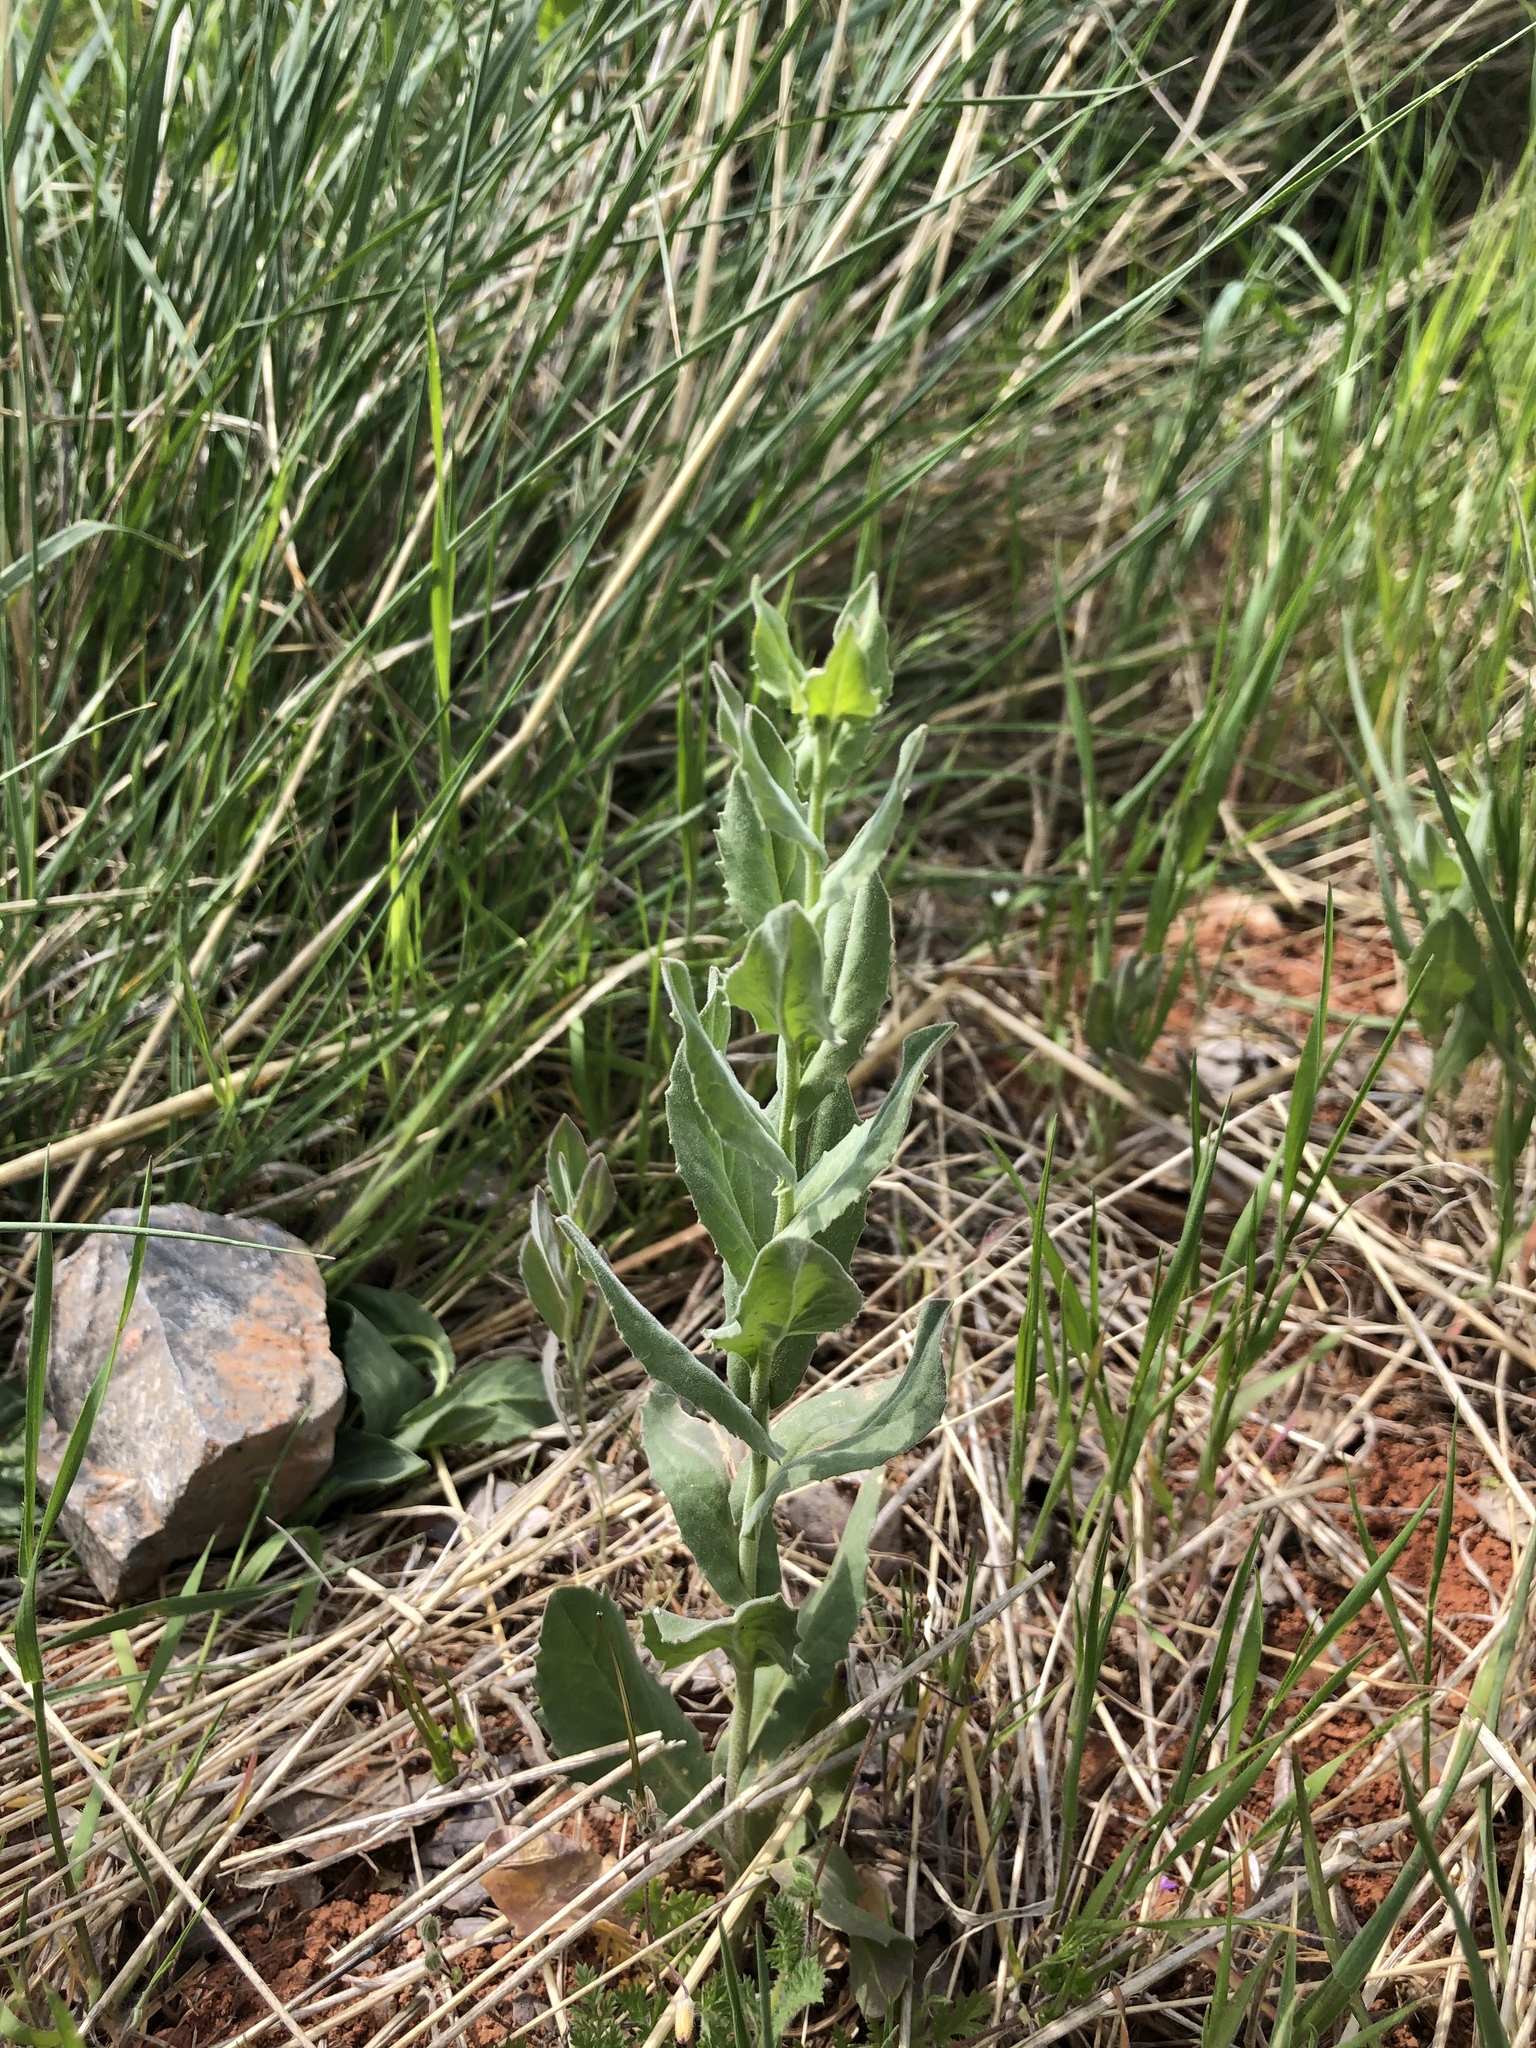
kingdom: Plantae
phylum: Tracheophyta
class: Magnoliopsida
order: Brassicales
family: Brassicaceae
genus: Lepidium
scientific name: Lepidium draba
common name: Hoary cress
